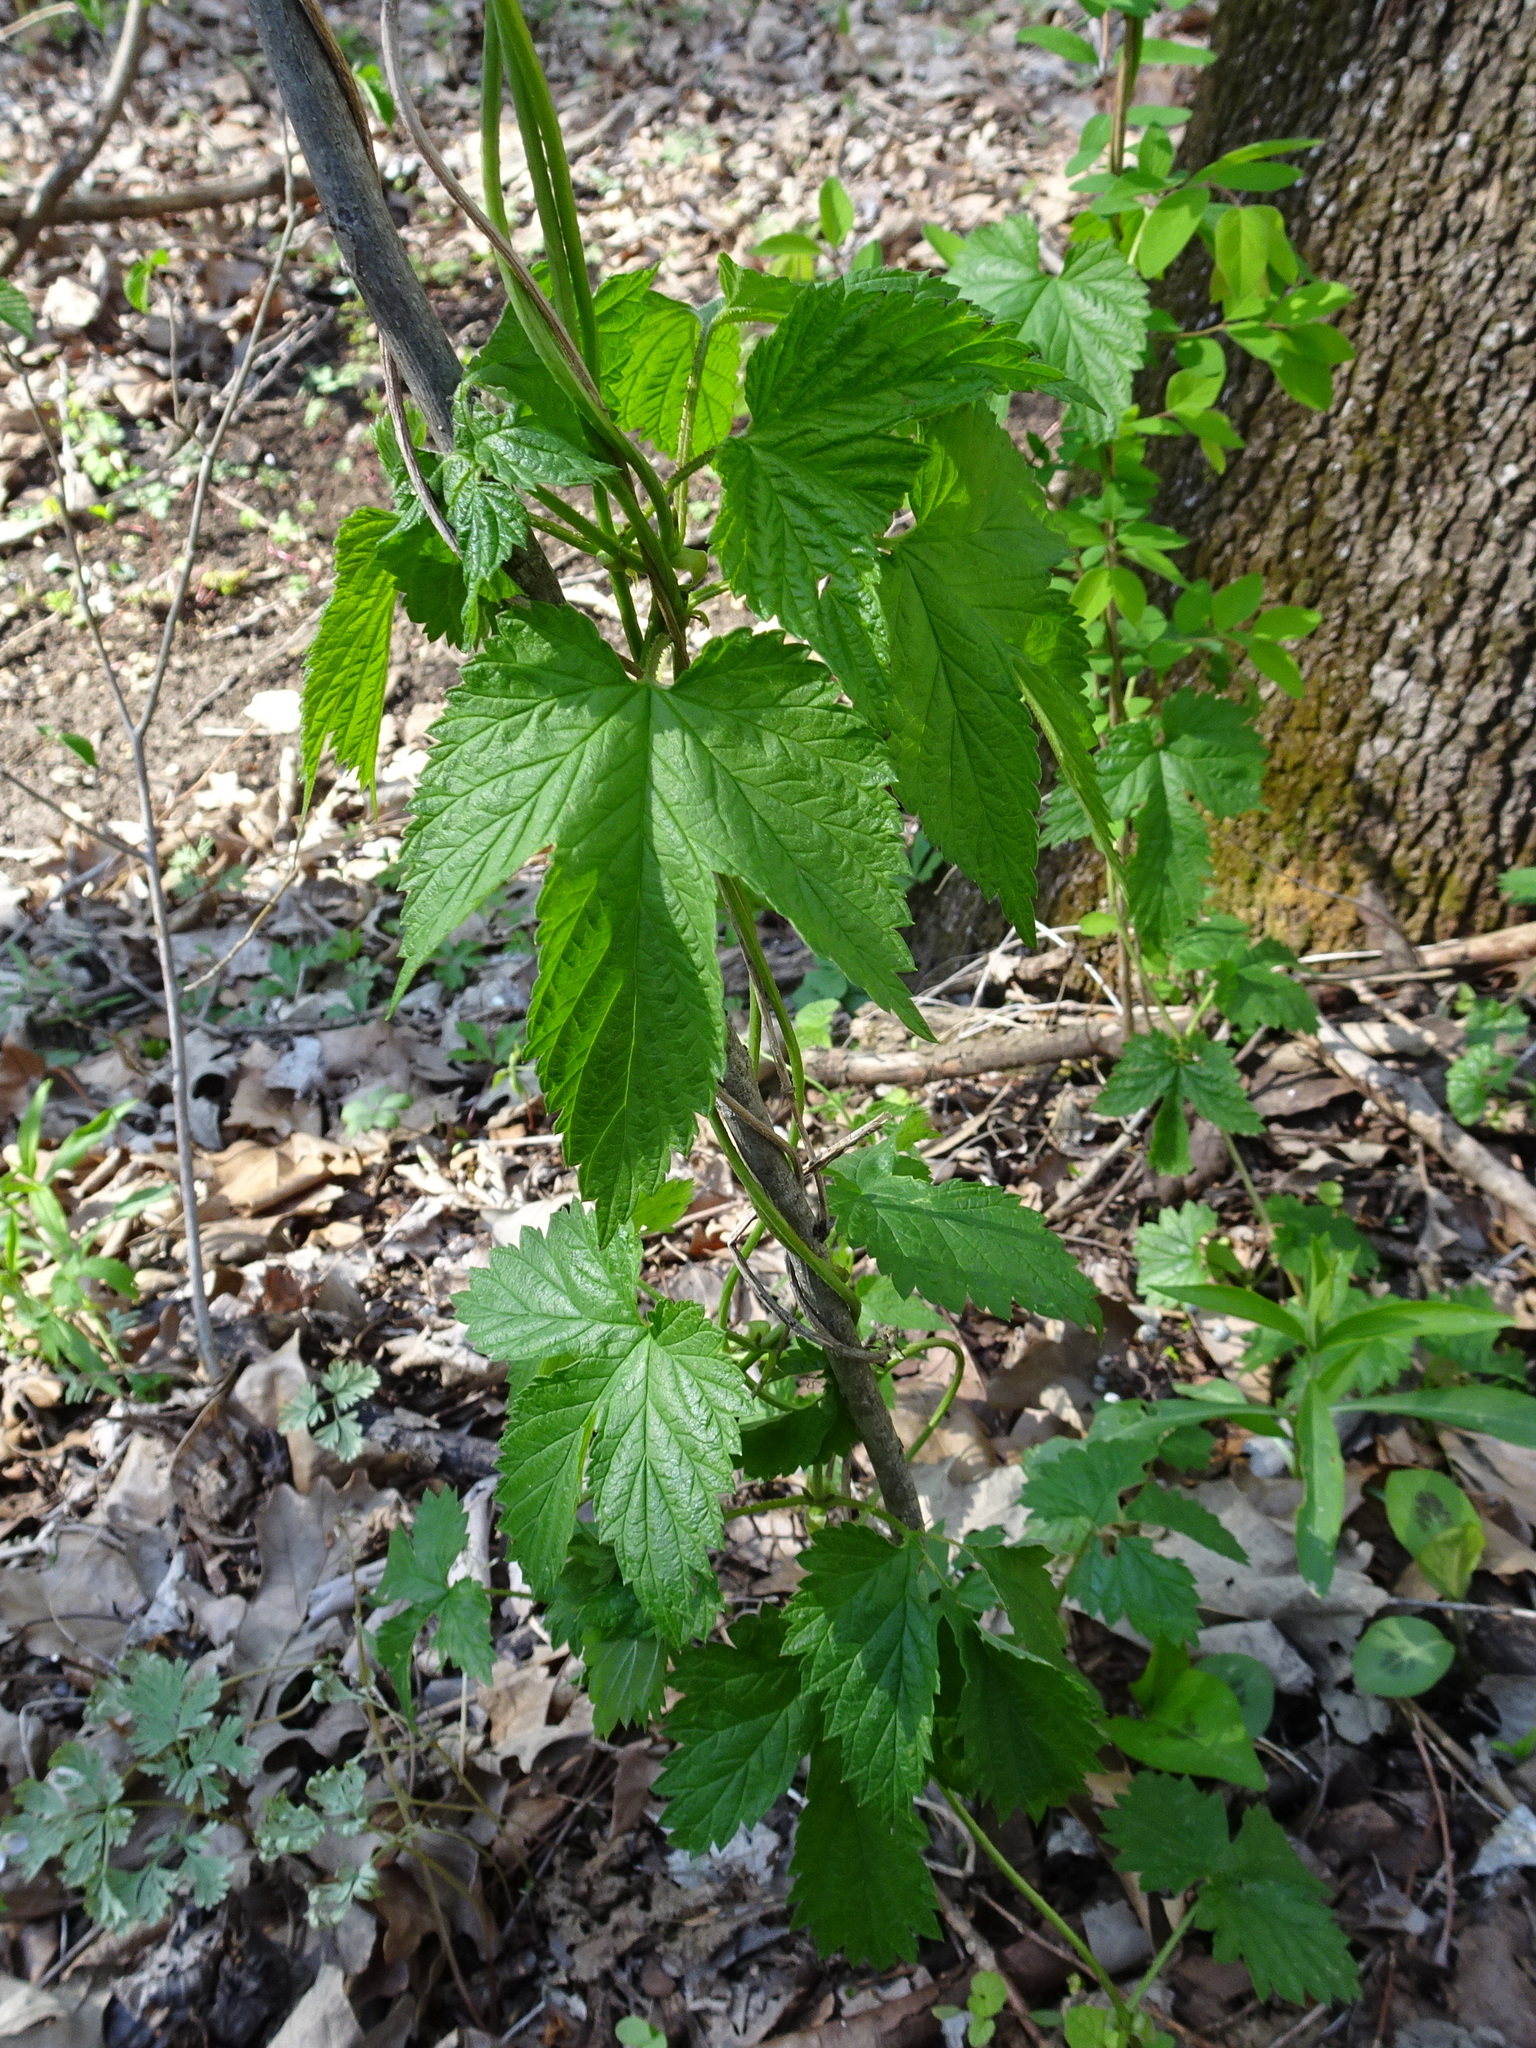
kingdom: Plantae
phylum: Tracheophyta
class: Magnoliopsida
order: Rosales
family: Cannabaceae
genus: Humulus
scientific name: Humulus lupulus
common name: Hop
